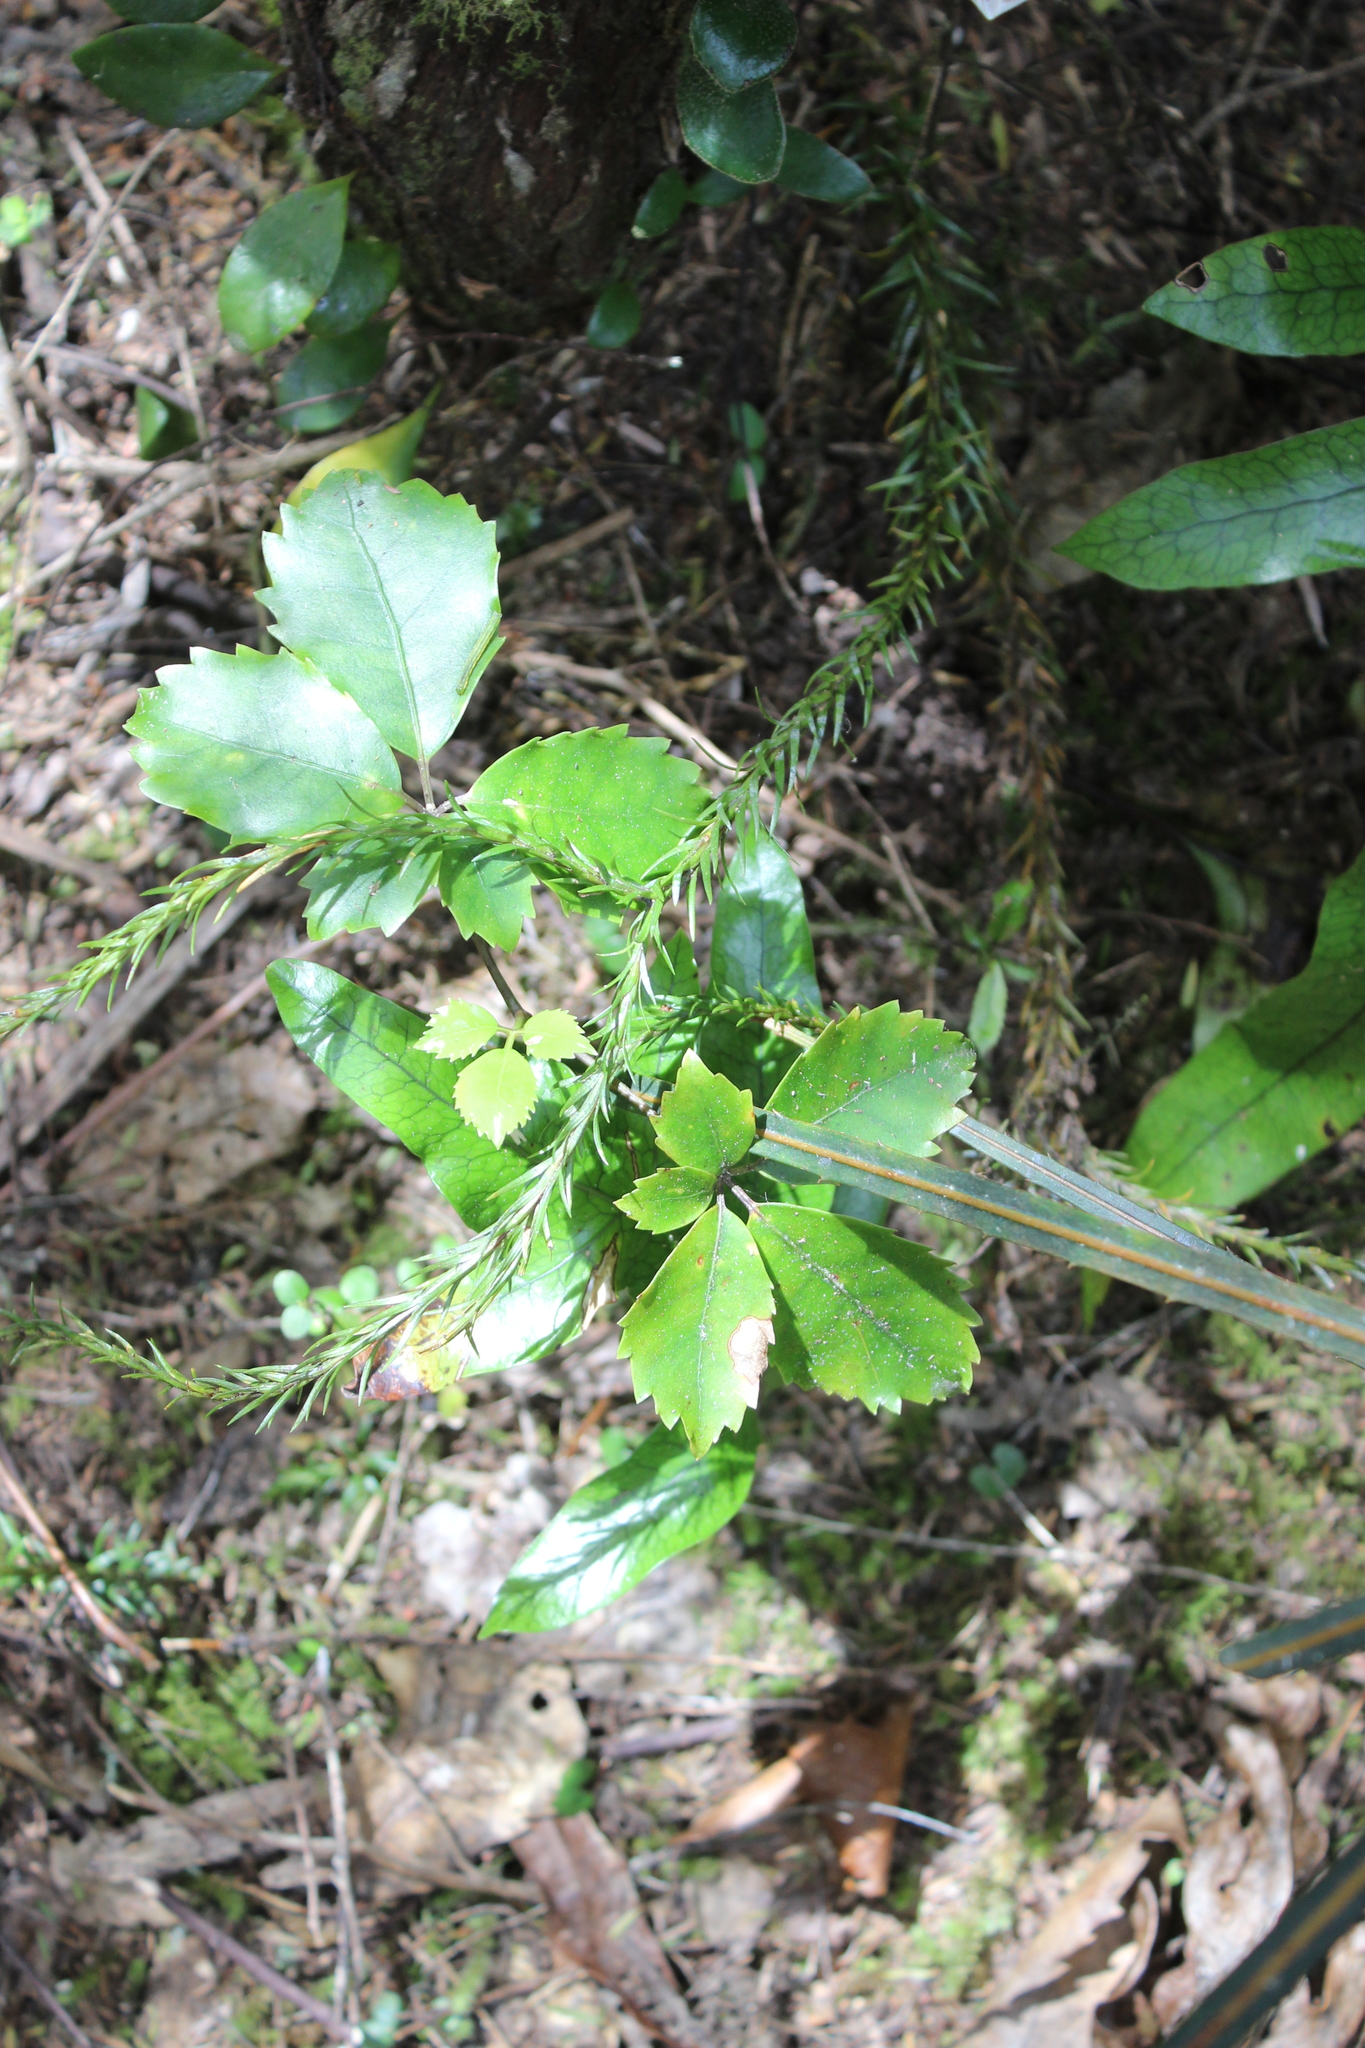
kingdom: Plantae
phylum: Tracheophyta
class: Magnoliopsida
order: Apiales
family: Araliaceae
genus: Neopanax
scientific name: Neopanax arboreus
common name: Five-fingers
